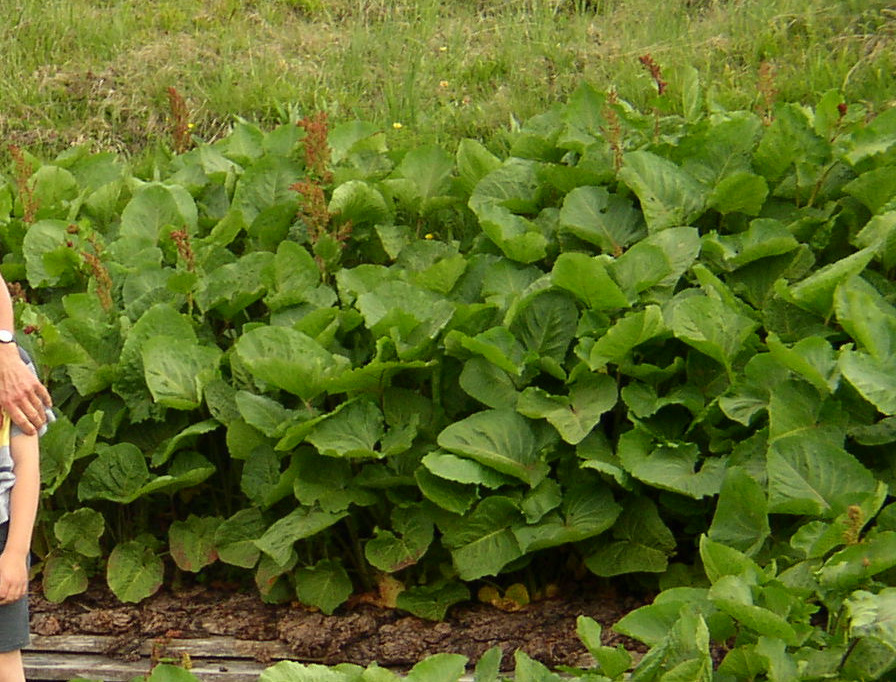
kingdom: Plantae
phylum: Tracheophyta
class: Magnoliopsida
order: Caryophyllales
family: Polygonaceae
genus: Rumex
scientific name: Rumex alpinus
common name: Alpine dock
